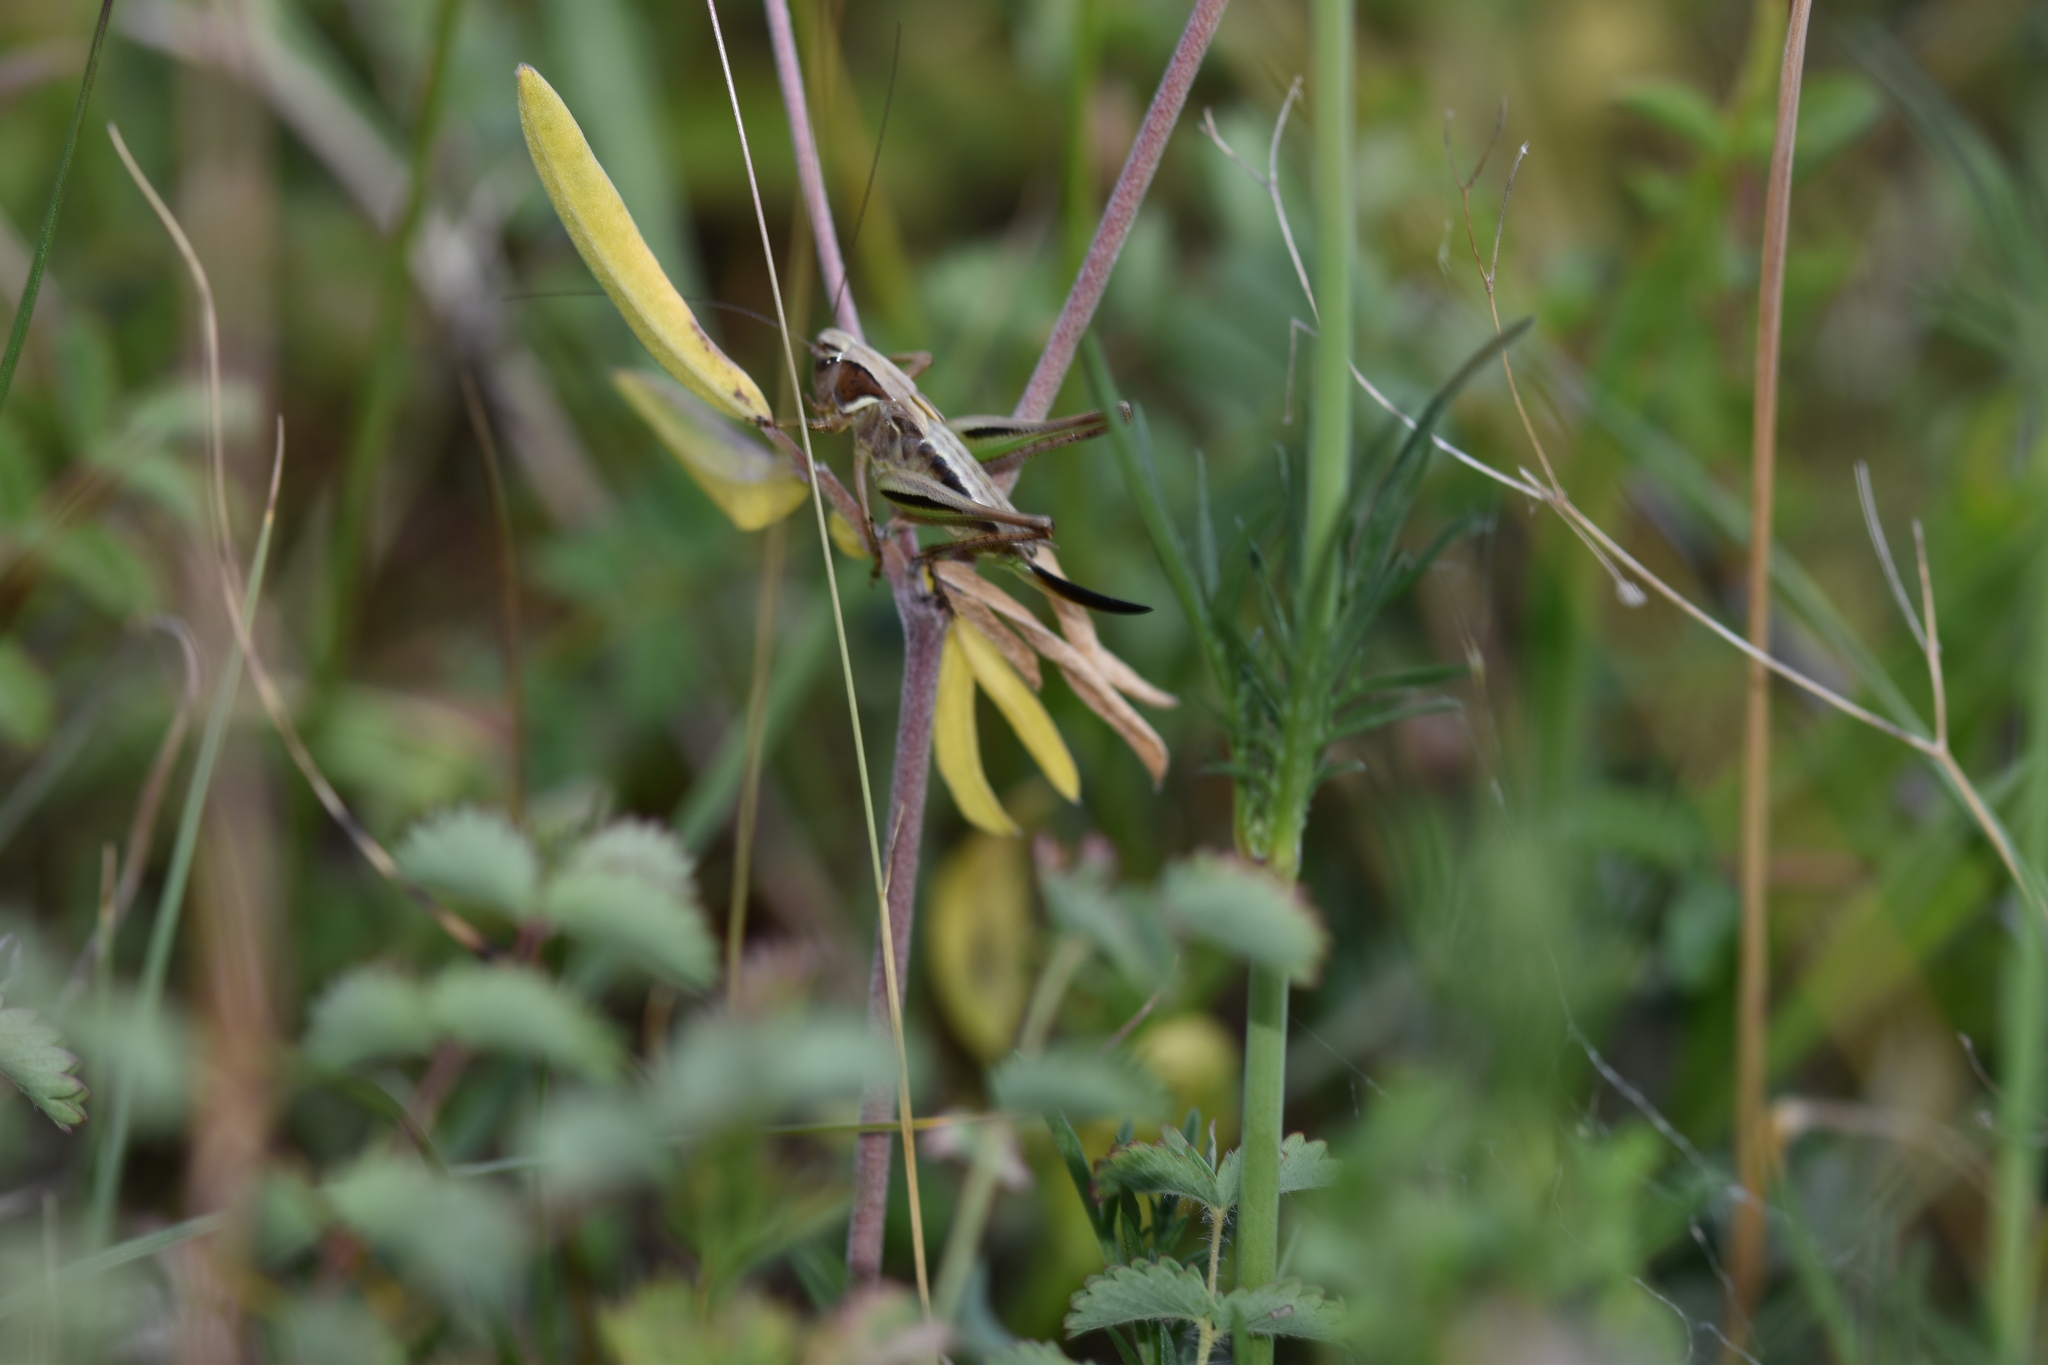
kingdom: Animalia
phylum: Arthropoda
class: Insecta
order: Orthoptera
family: Tettigoniidae
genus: Metrioptera
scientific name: Metrioptera brachyptera
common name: Bog bush-cricket
